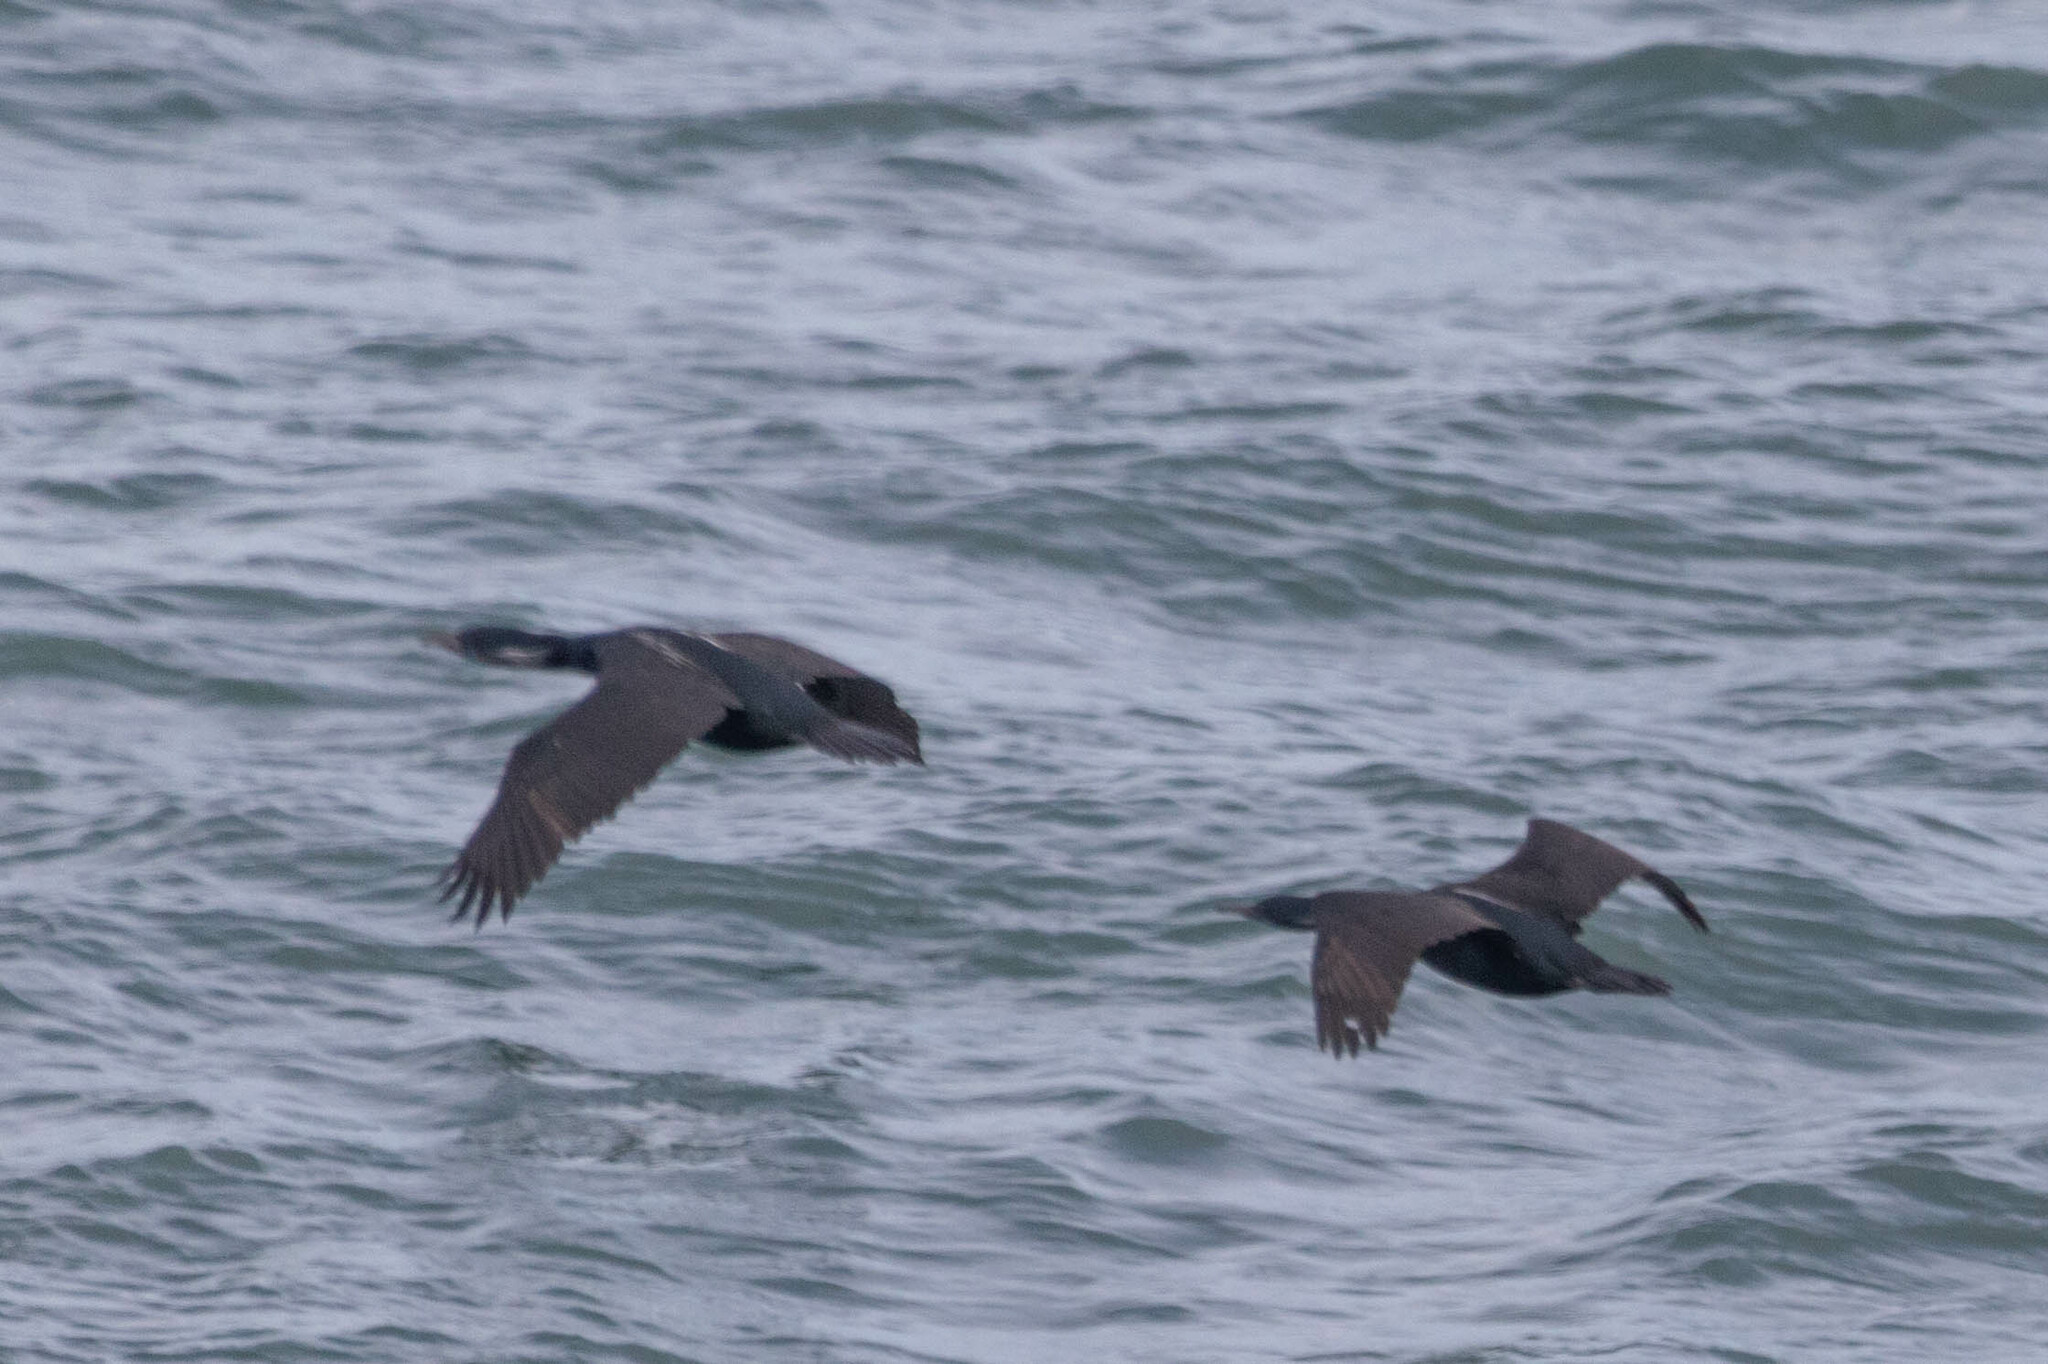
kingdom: Animalia
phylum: Chordata
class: Aves
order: Suliformes
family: Phalacrocoracidae
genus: Urile
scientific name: Urile penicillatus
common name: Brandt's cormorant
